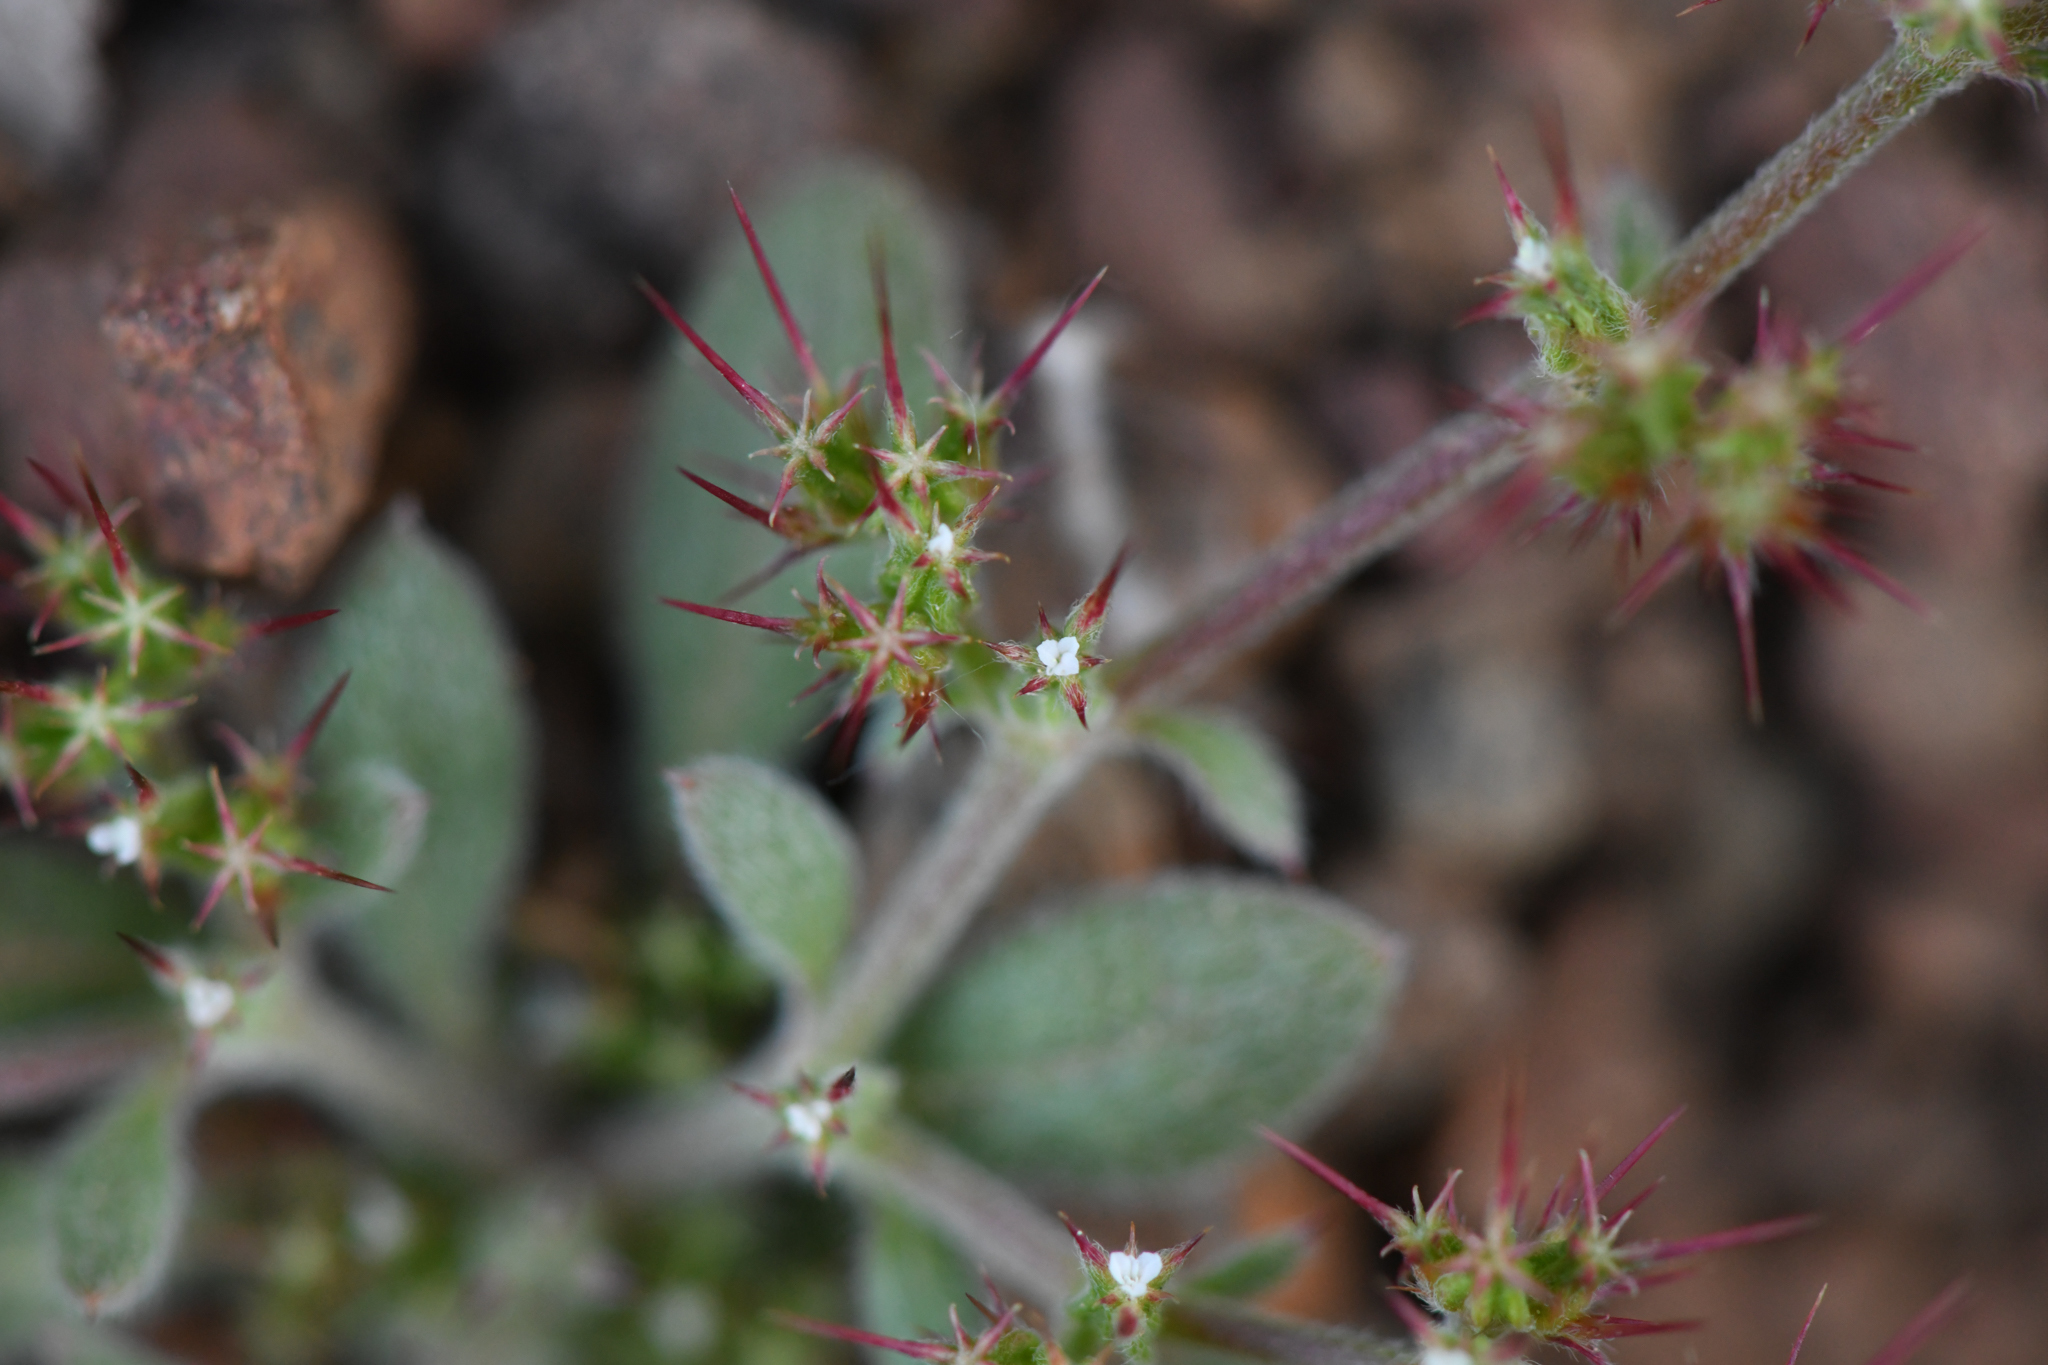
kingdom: Plantae
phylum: Tracheophyta
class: Magnoliopsida
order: Caryophyllales
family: Polygonaceae
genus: Chorizanthe
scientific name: Chorizanthe uniaristata
